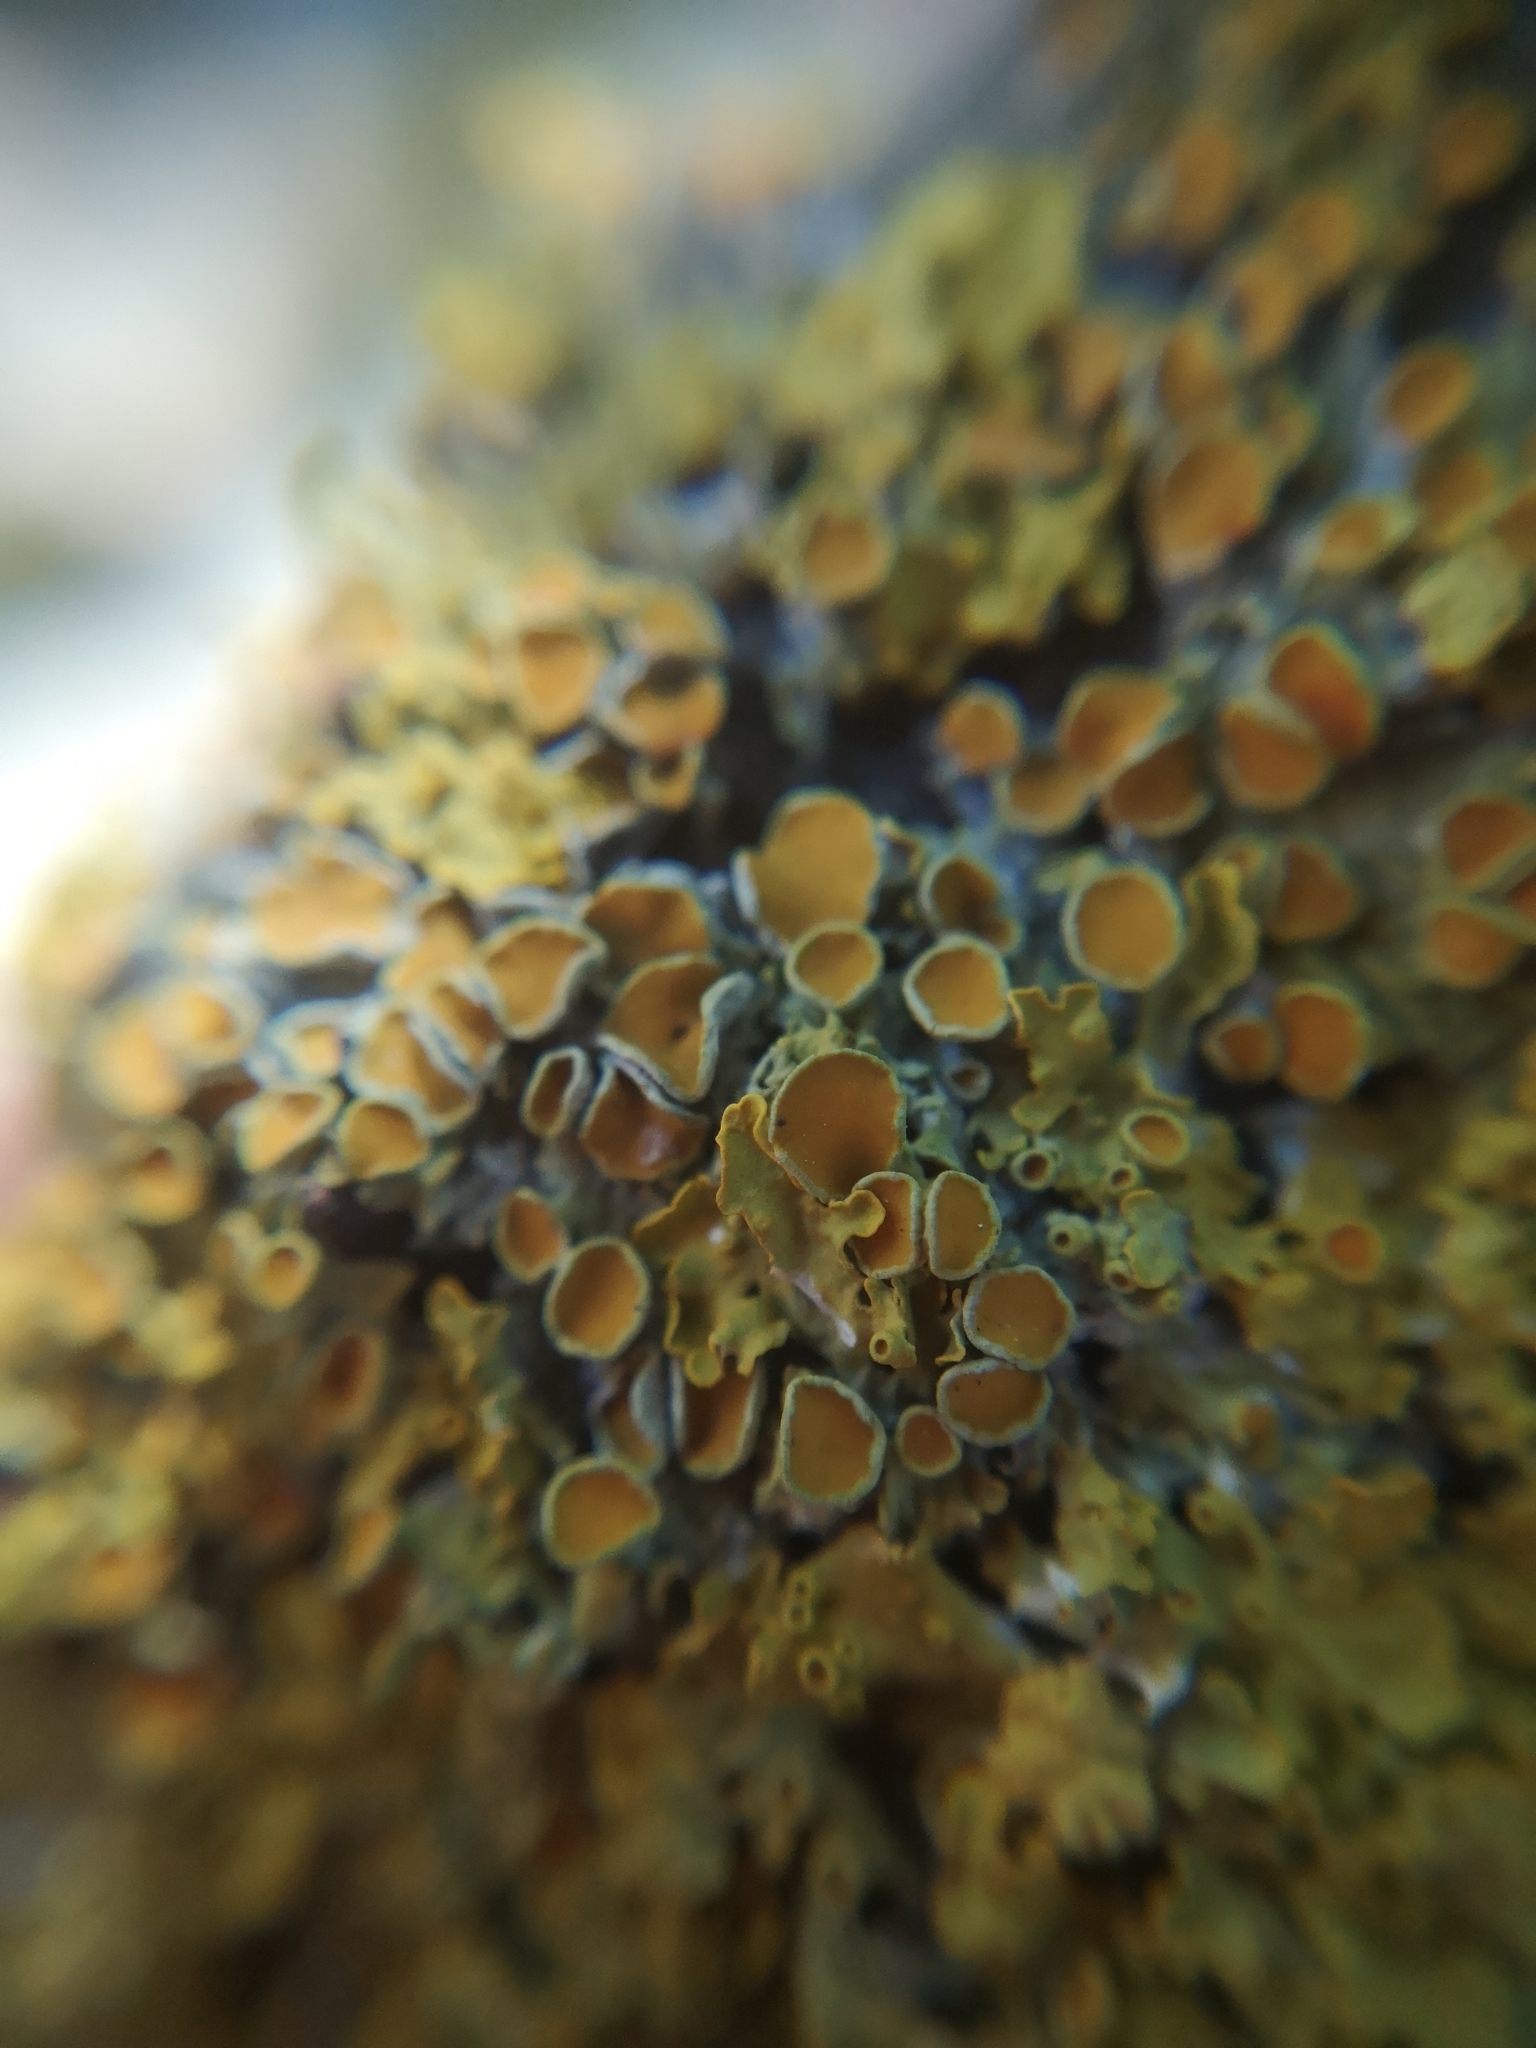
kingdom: Fungi
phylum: Ascomycota
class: Lecanoromycetes
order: Teloschistales
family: Teloschistaceae
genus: Xanthoria
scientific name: Xanthoria parietina
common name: Common orange lichen
